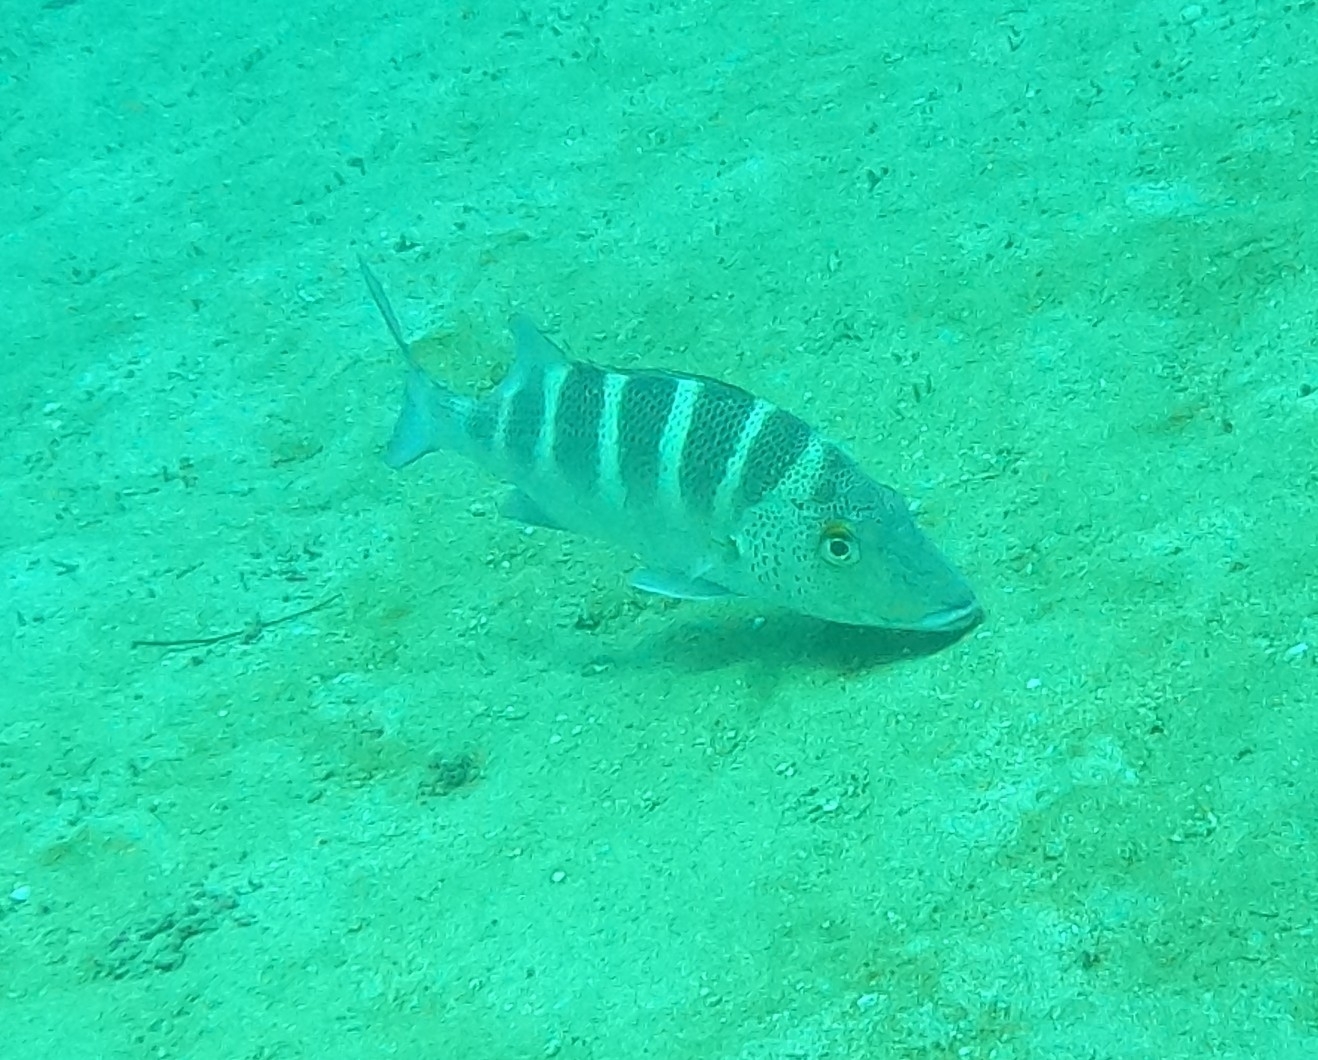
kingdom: Animalia
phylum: Chordata
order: Perciformes
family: Haemulidae
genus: Haemulon
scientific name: Haemulon sexfasciatum
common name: Graybar grunt
